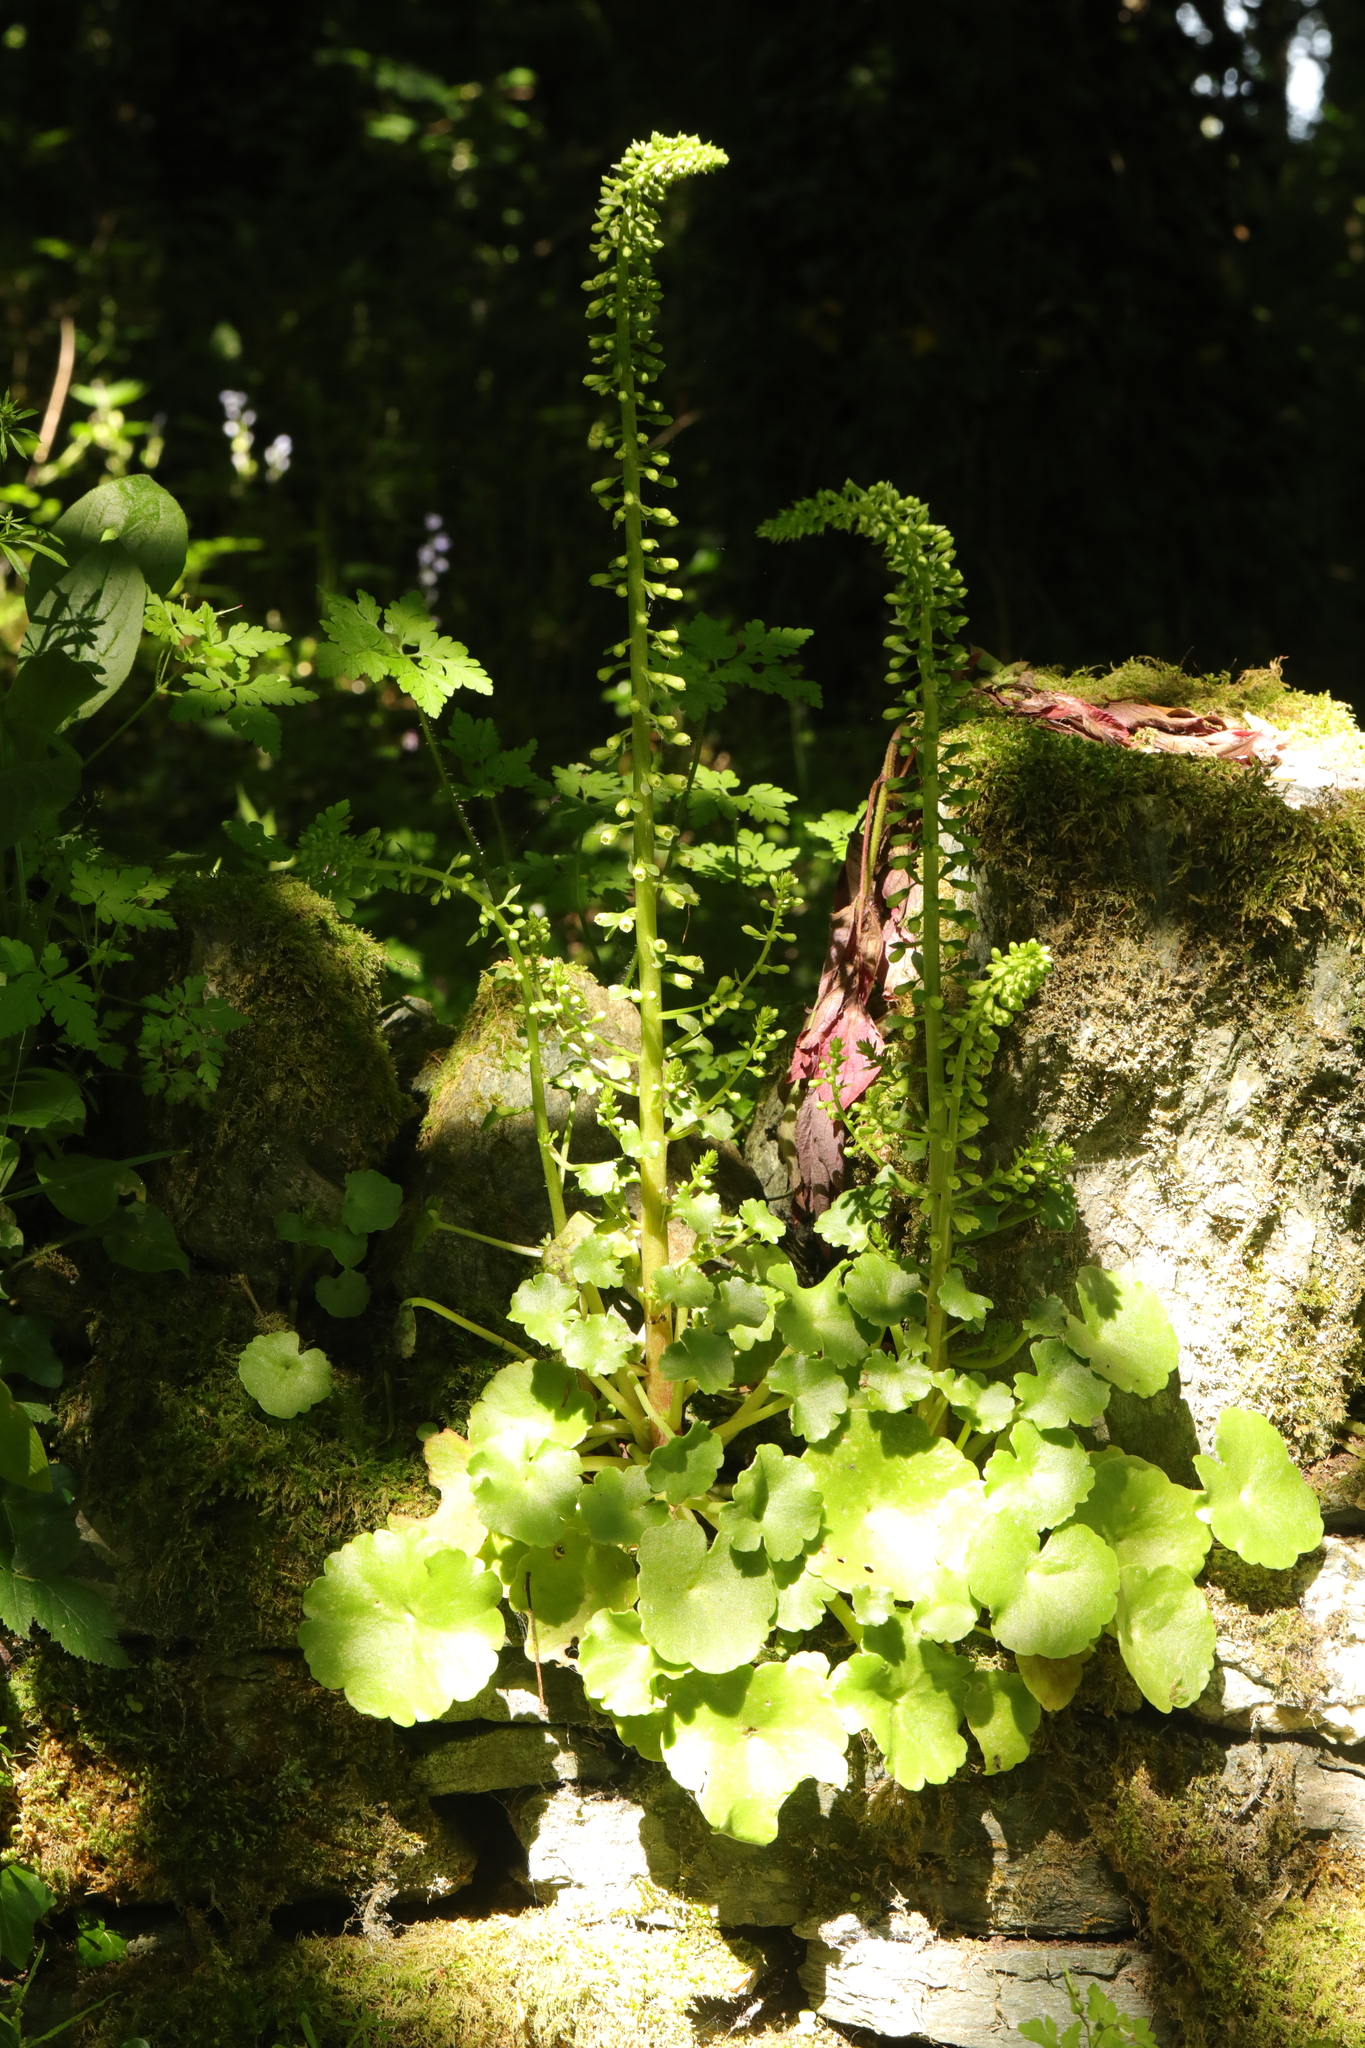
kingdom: Plantae
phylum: Tracheophyta
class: Magnoliopsida
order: Saxifragales
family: Crassulaceae
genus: Umbilicus
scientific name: Umbilicus rupestris
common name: Navelwort
